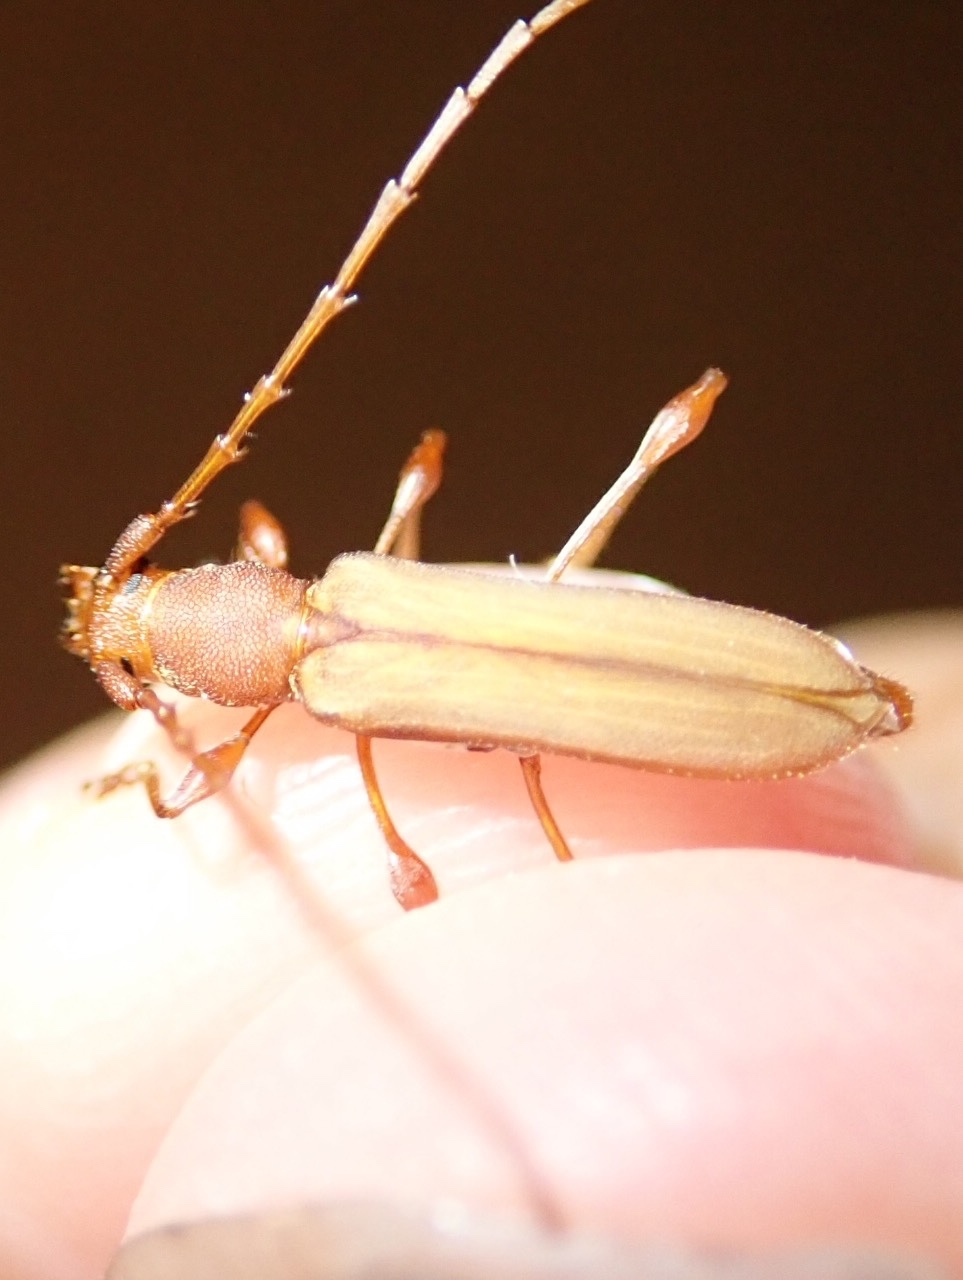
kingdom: Animalia
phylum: Arthropoda
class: Insecta
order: Coleoptera
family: Cerambycidae
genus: Cordylomera
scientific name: Cordylomera karschi
